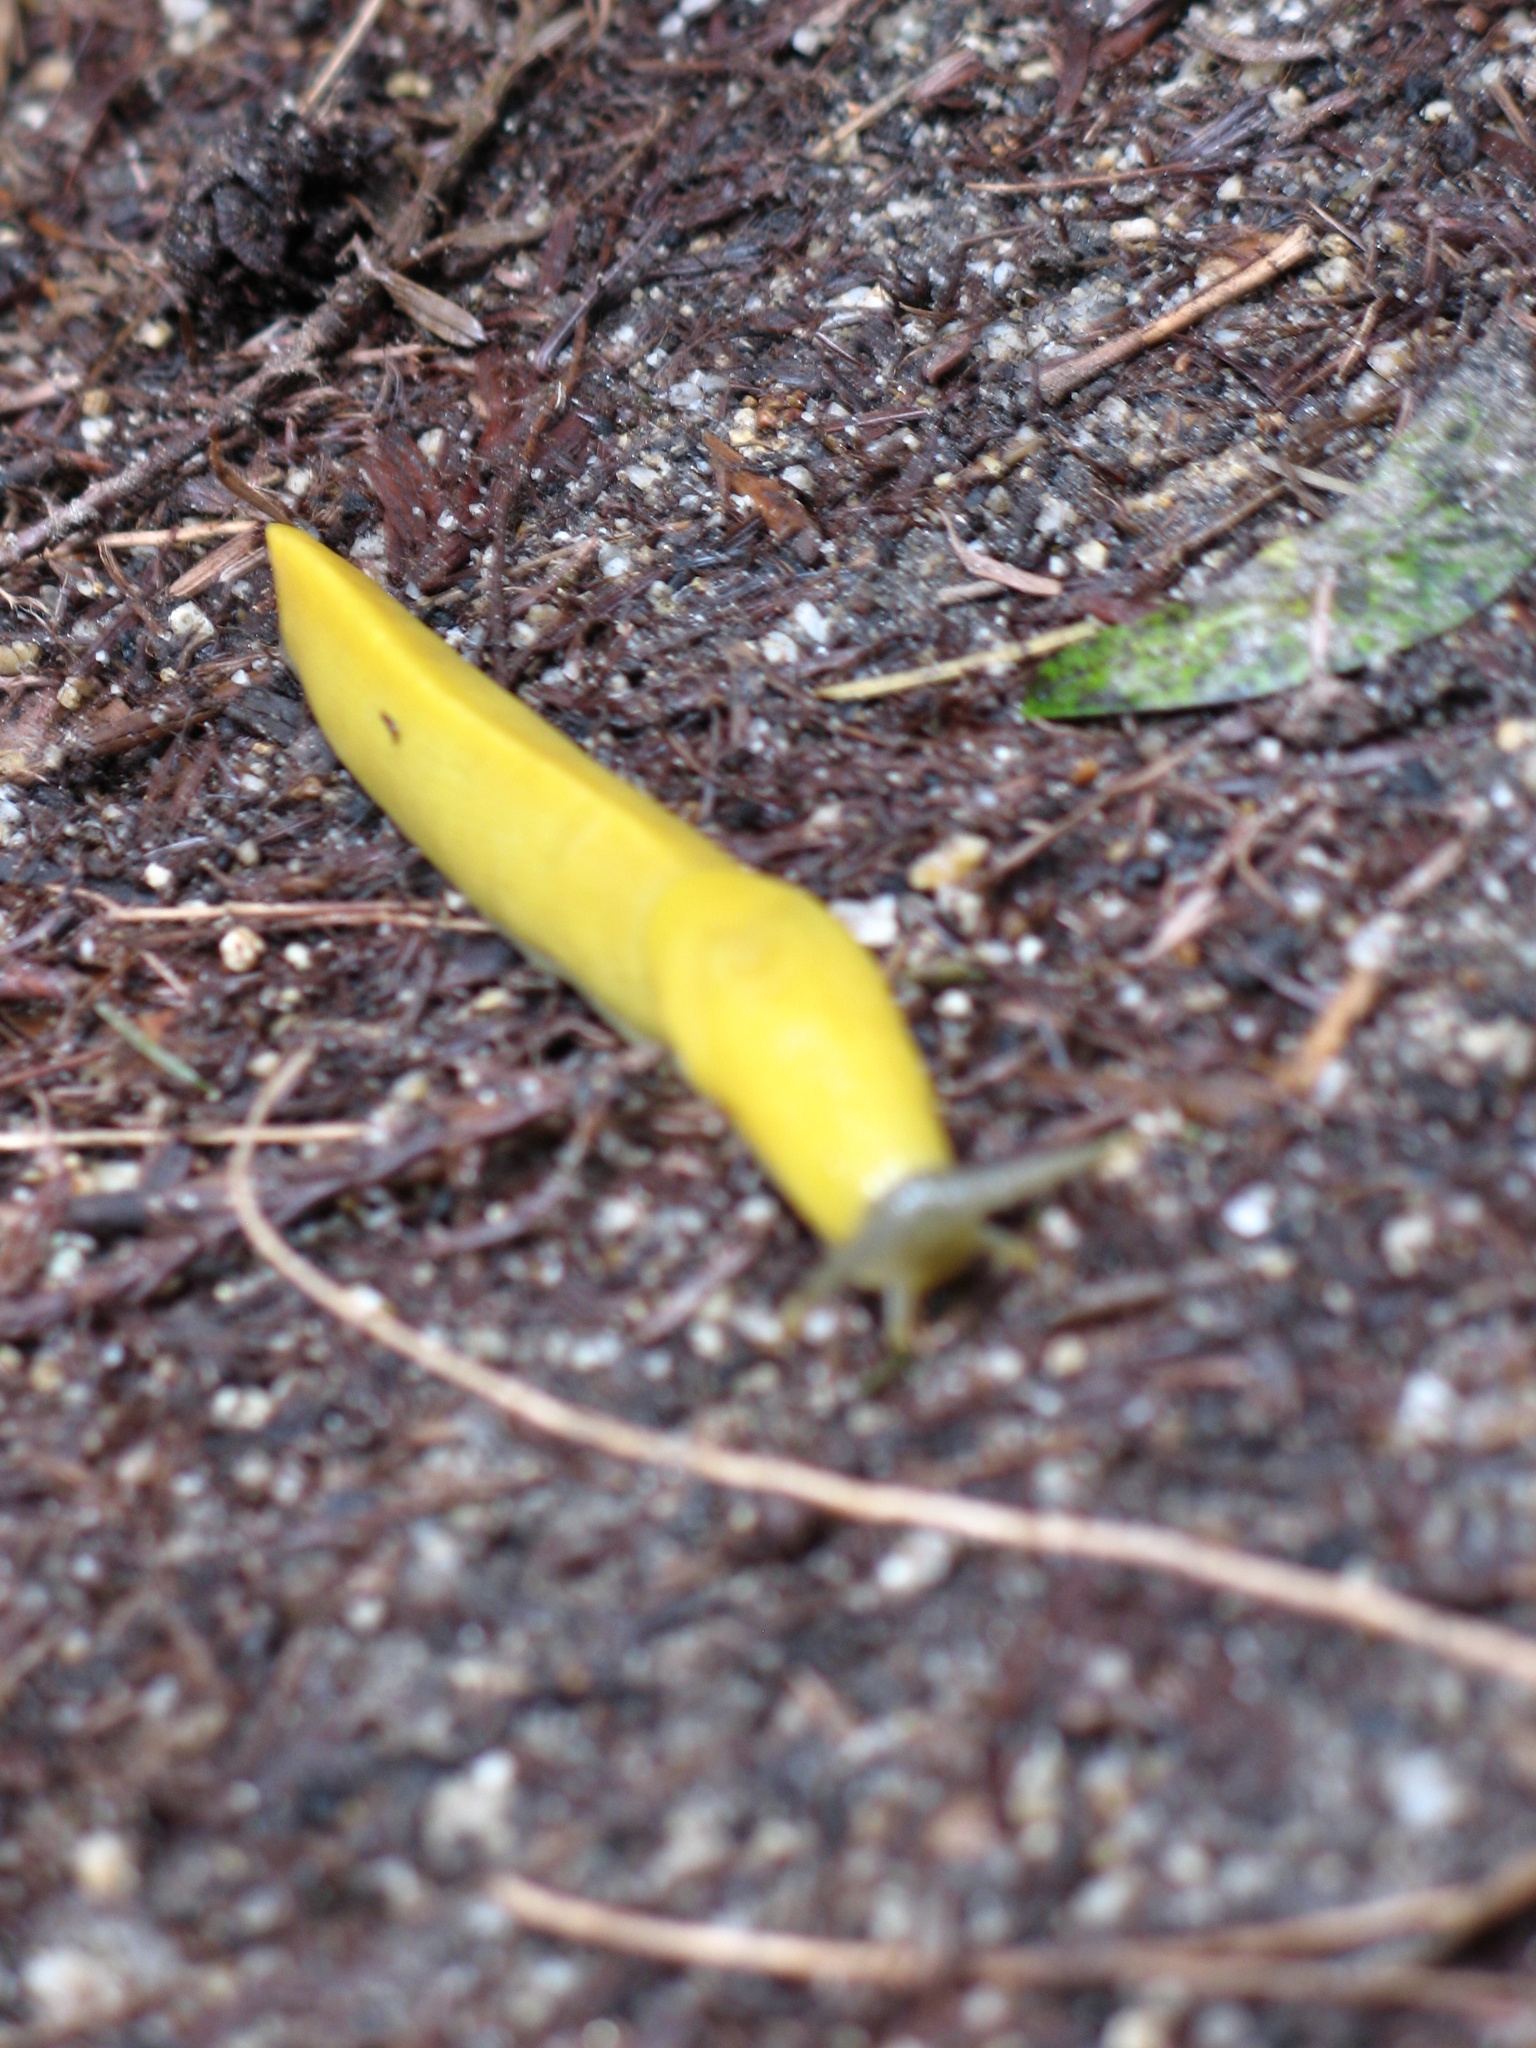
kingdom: Animalia
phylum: Mollusca
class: Gastropoda
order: Stylommatophora
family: Ariolimacidae
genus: Ariolimax
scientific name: Ariolimax dolichophallus
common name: Slender banana slug
